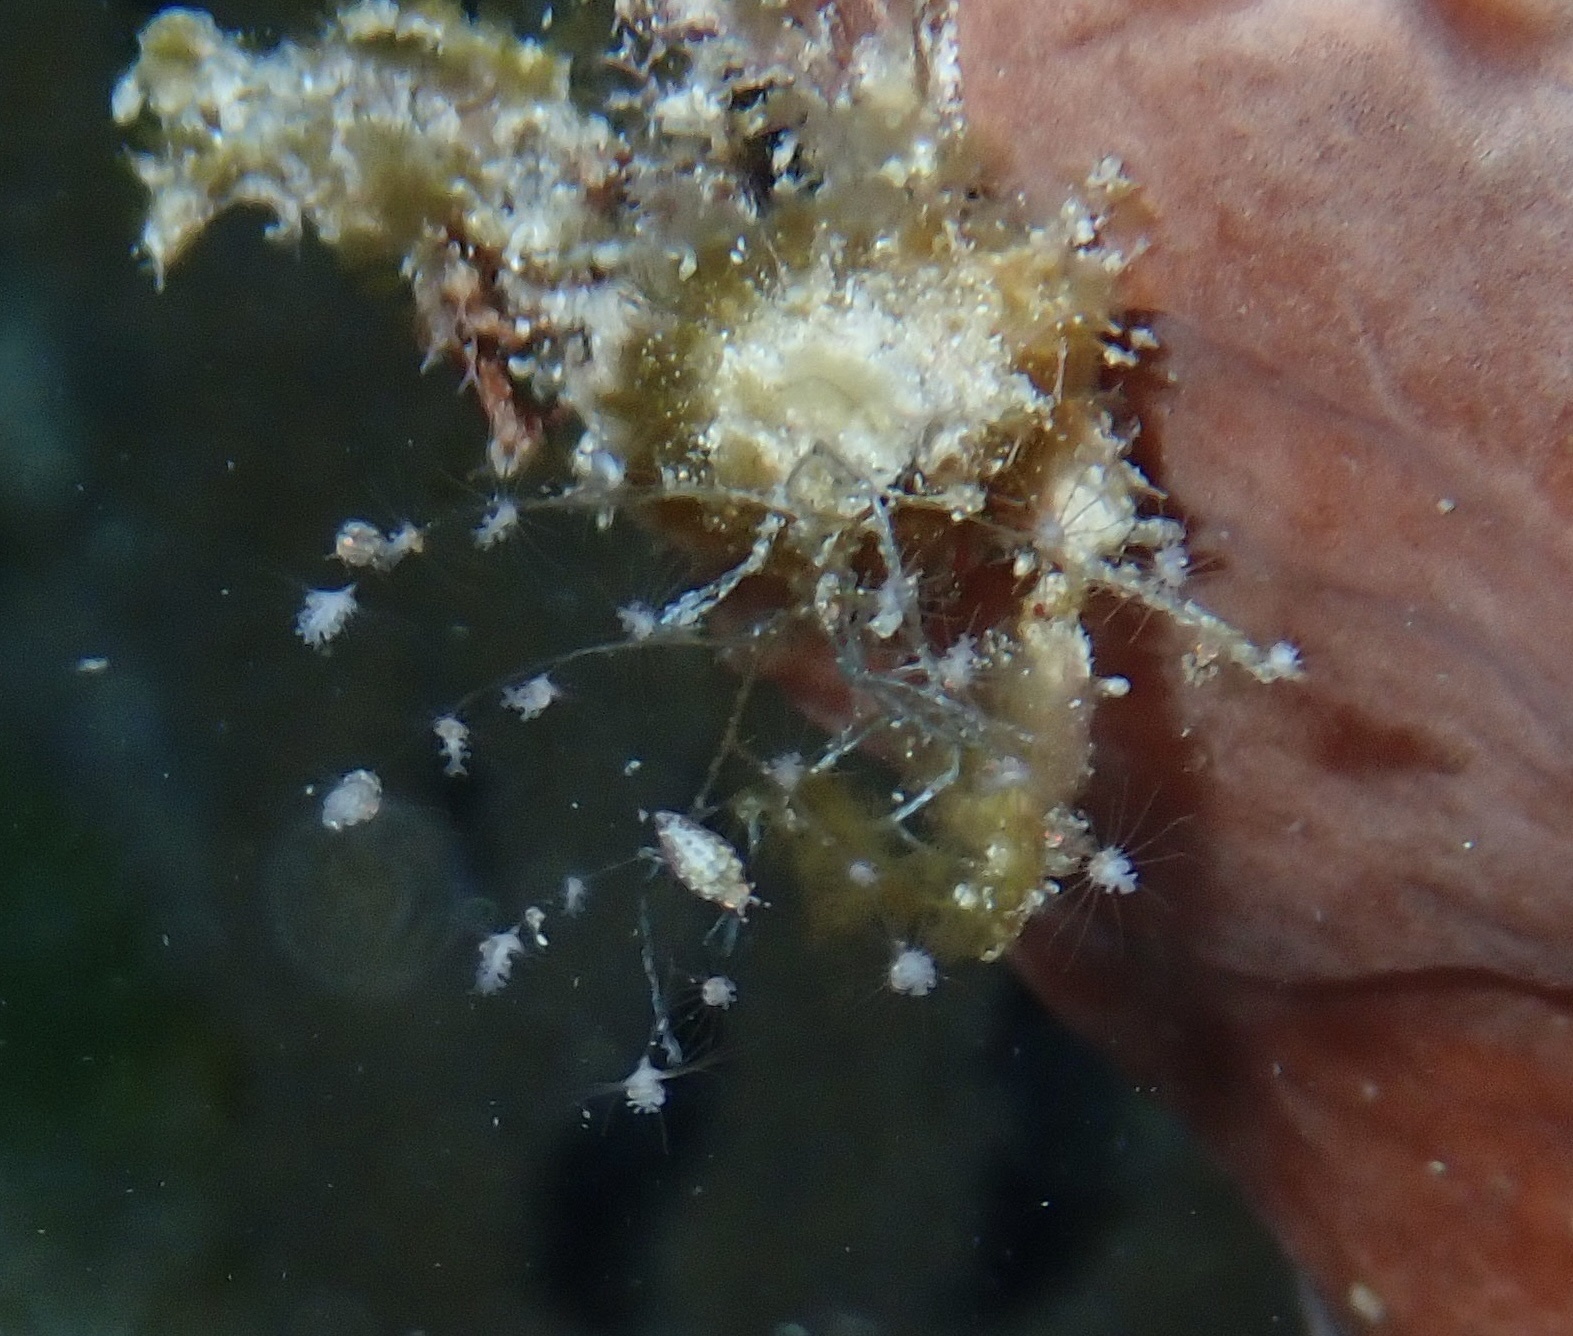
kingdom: Animalia
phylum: Cnidaria
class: Hydrozoa
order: Anthoathecata
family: Pennariidae
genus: Pennaria
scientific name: Pennaria disticha
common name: Feather hydroid
